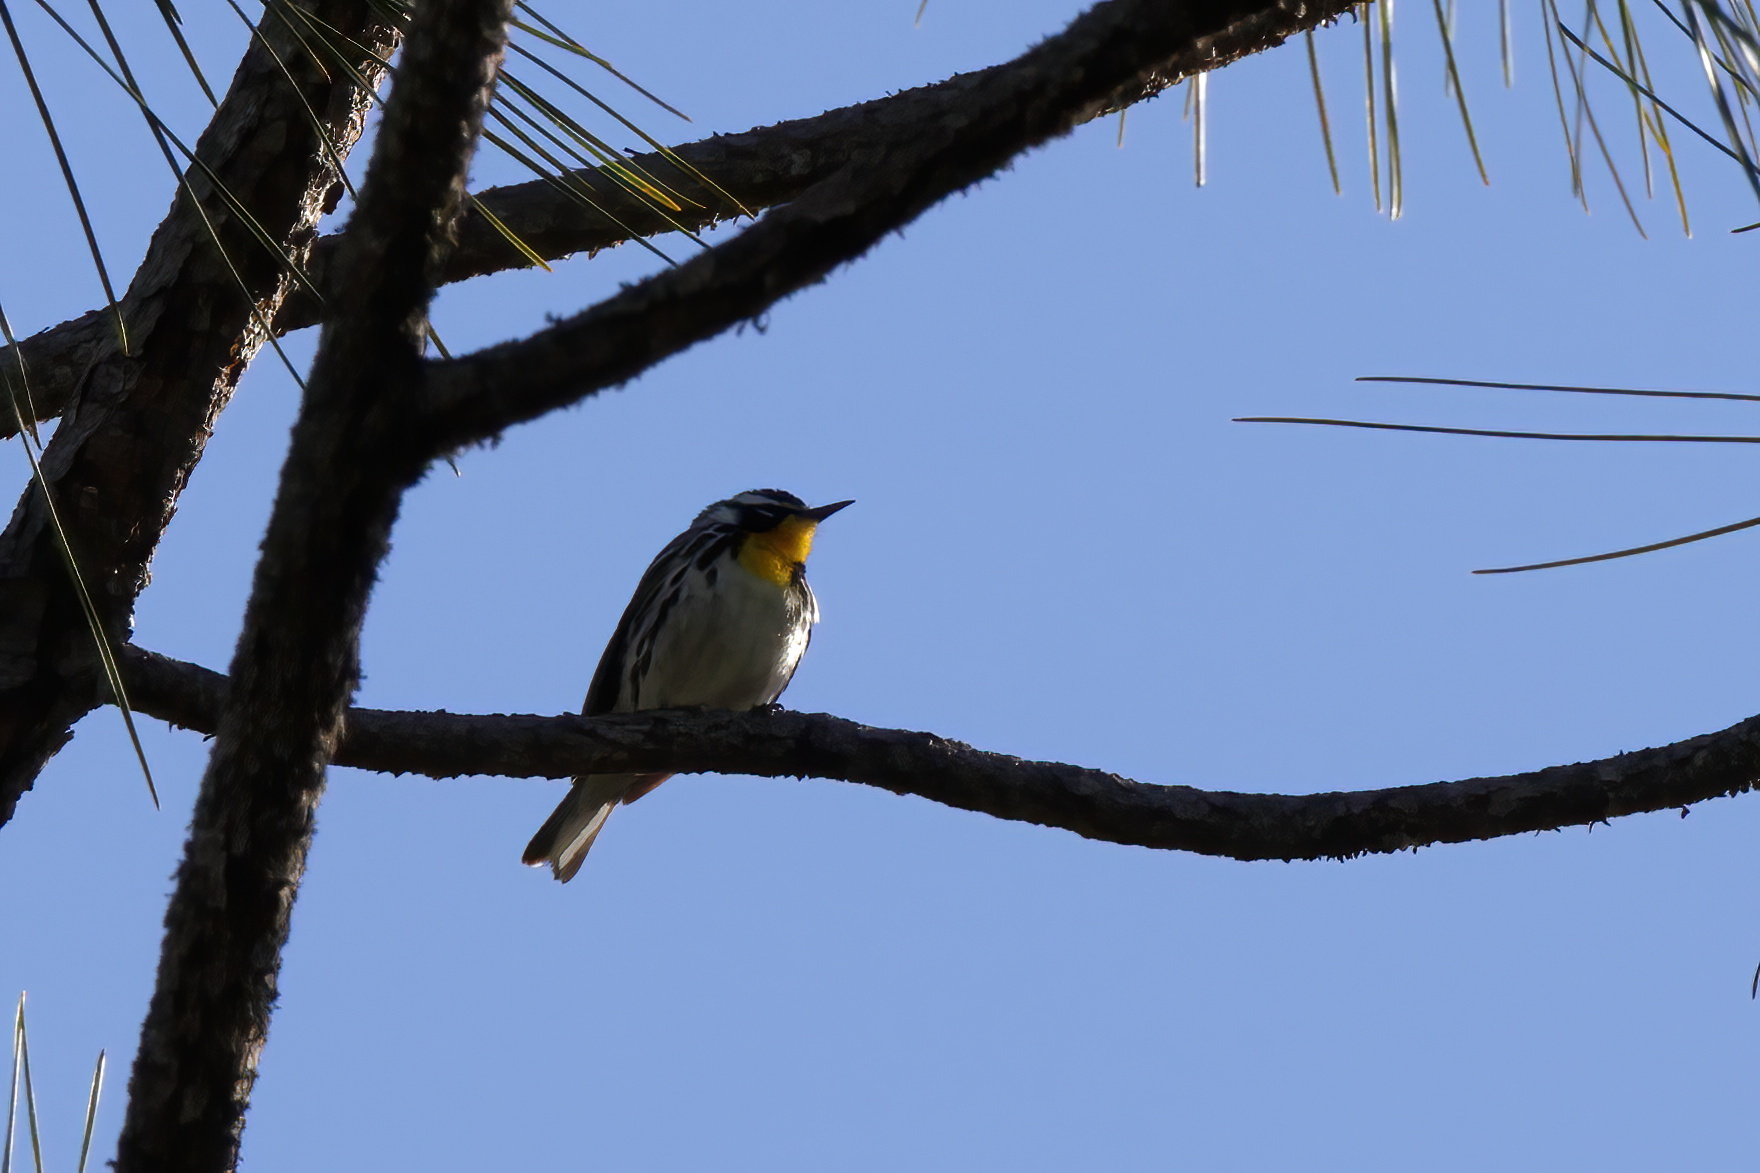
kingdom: Animalia
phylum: Chordata
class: Aves
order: Passeriformes
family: Parulidae
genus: Setophaga
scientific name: Setophaga dominica
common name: Yellow-throated warbler
